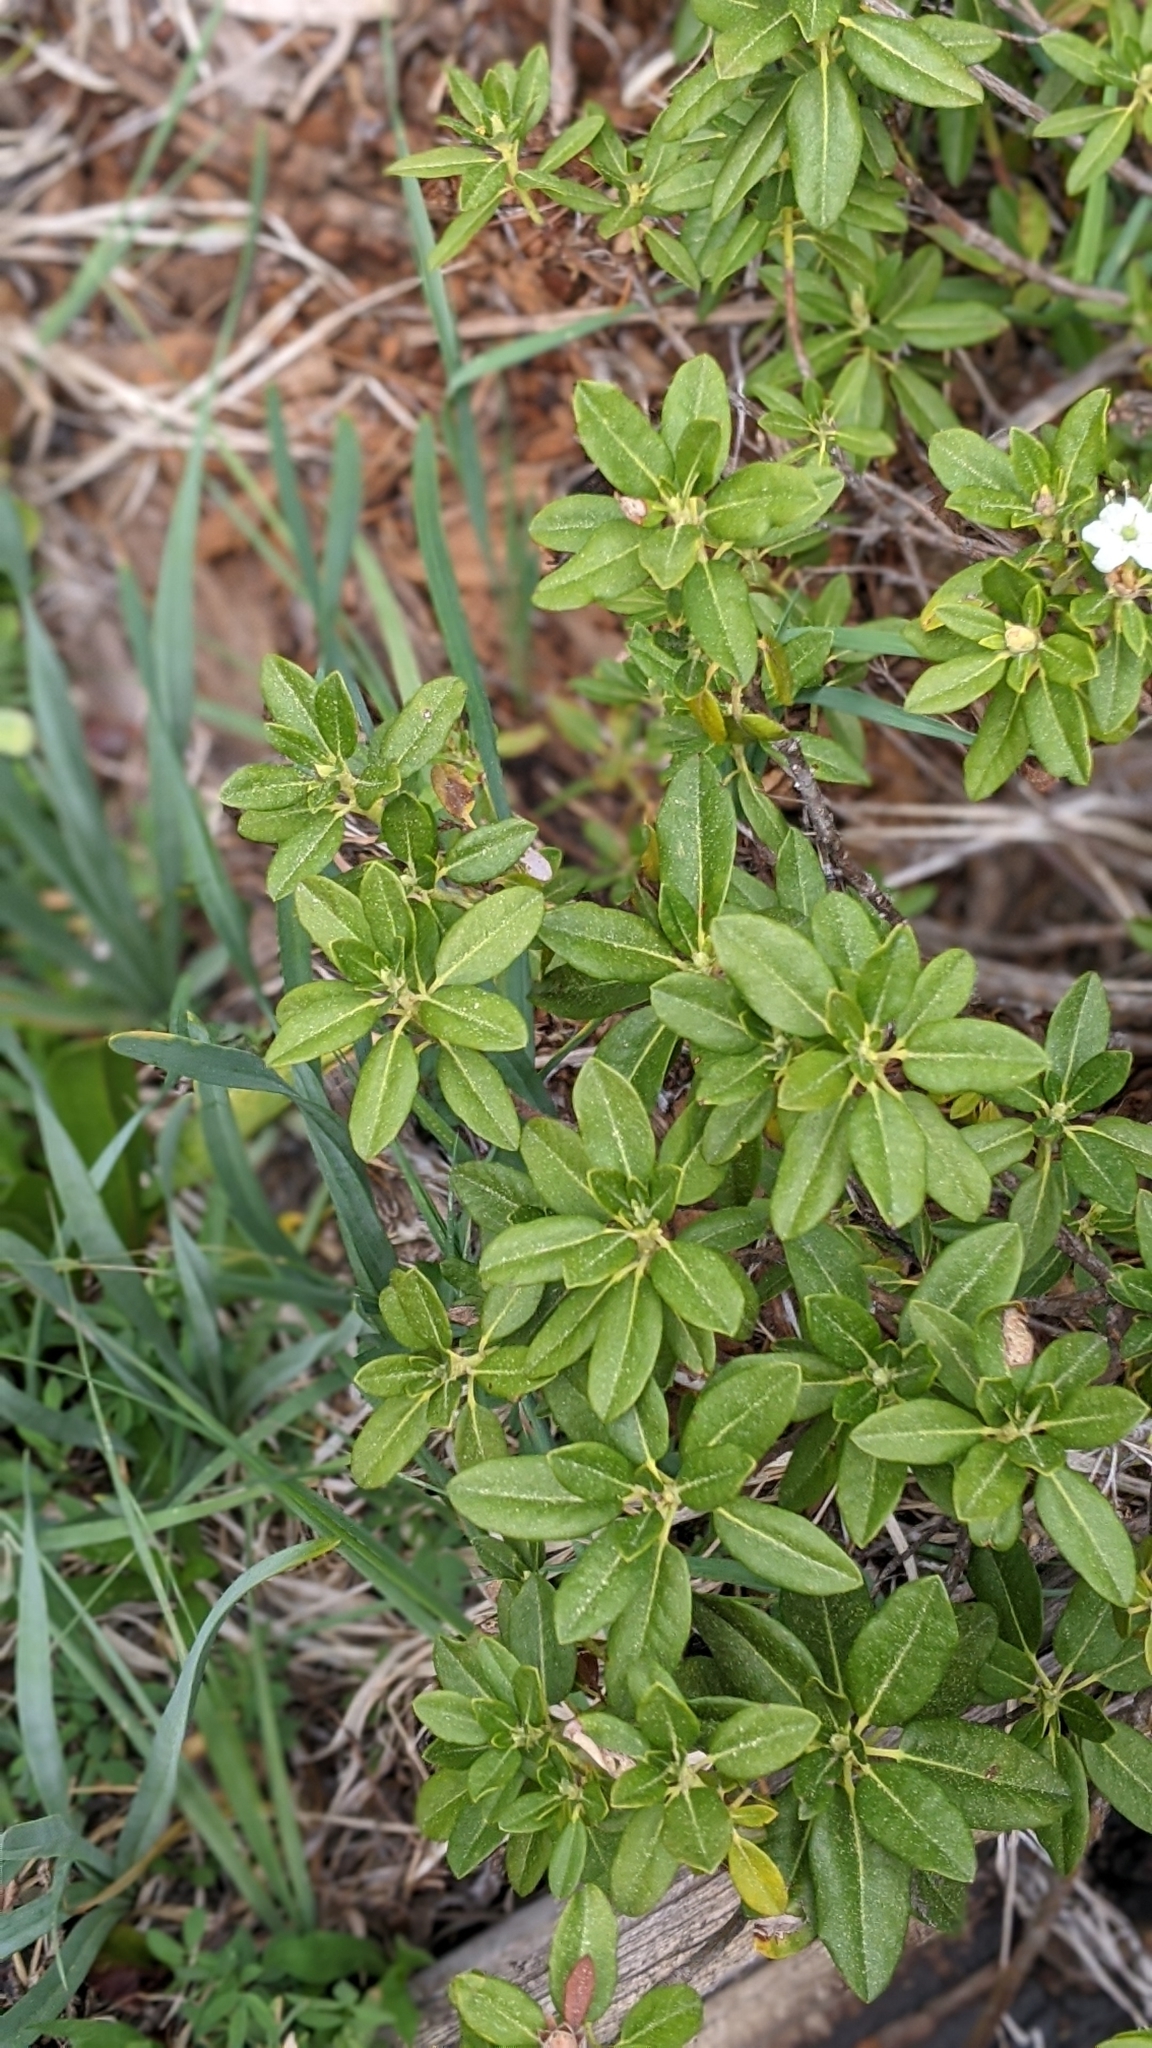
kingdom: Plantae
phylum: Tracheophyta
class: Magnoliopsida
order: Ericales
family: Ericaceae
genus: Rhododendron
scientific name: Rhododendron columbianum
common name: Western labrador tea
